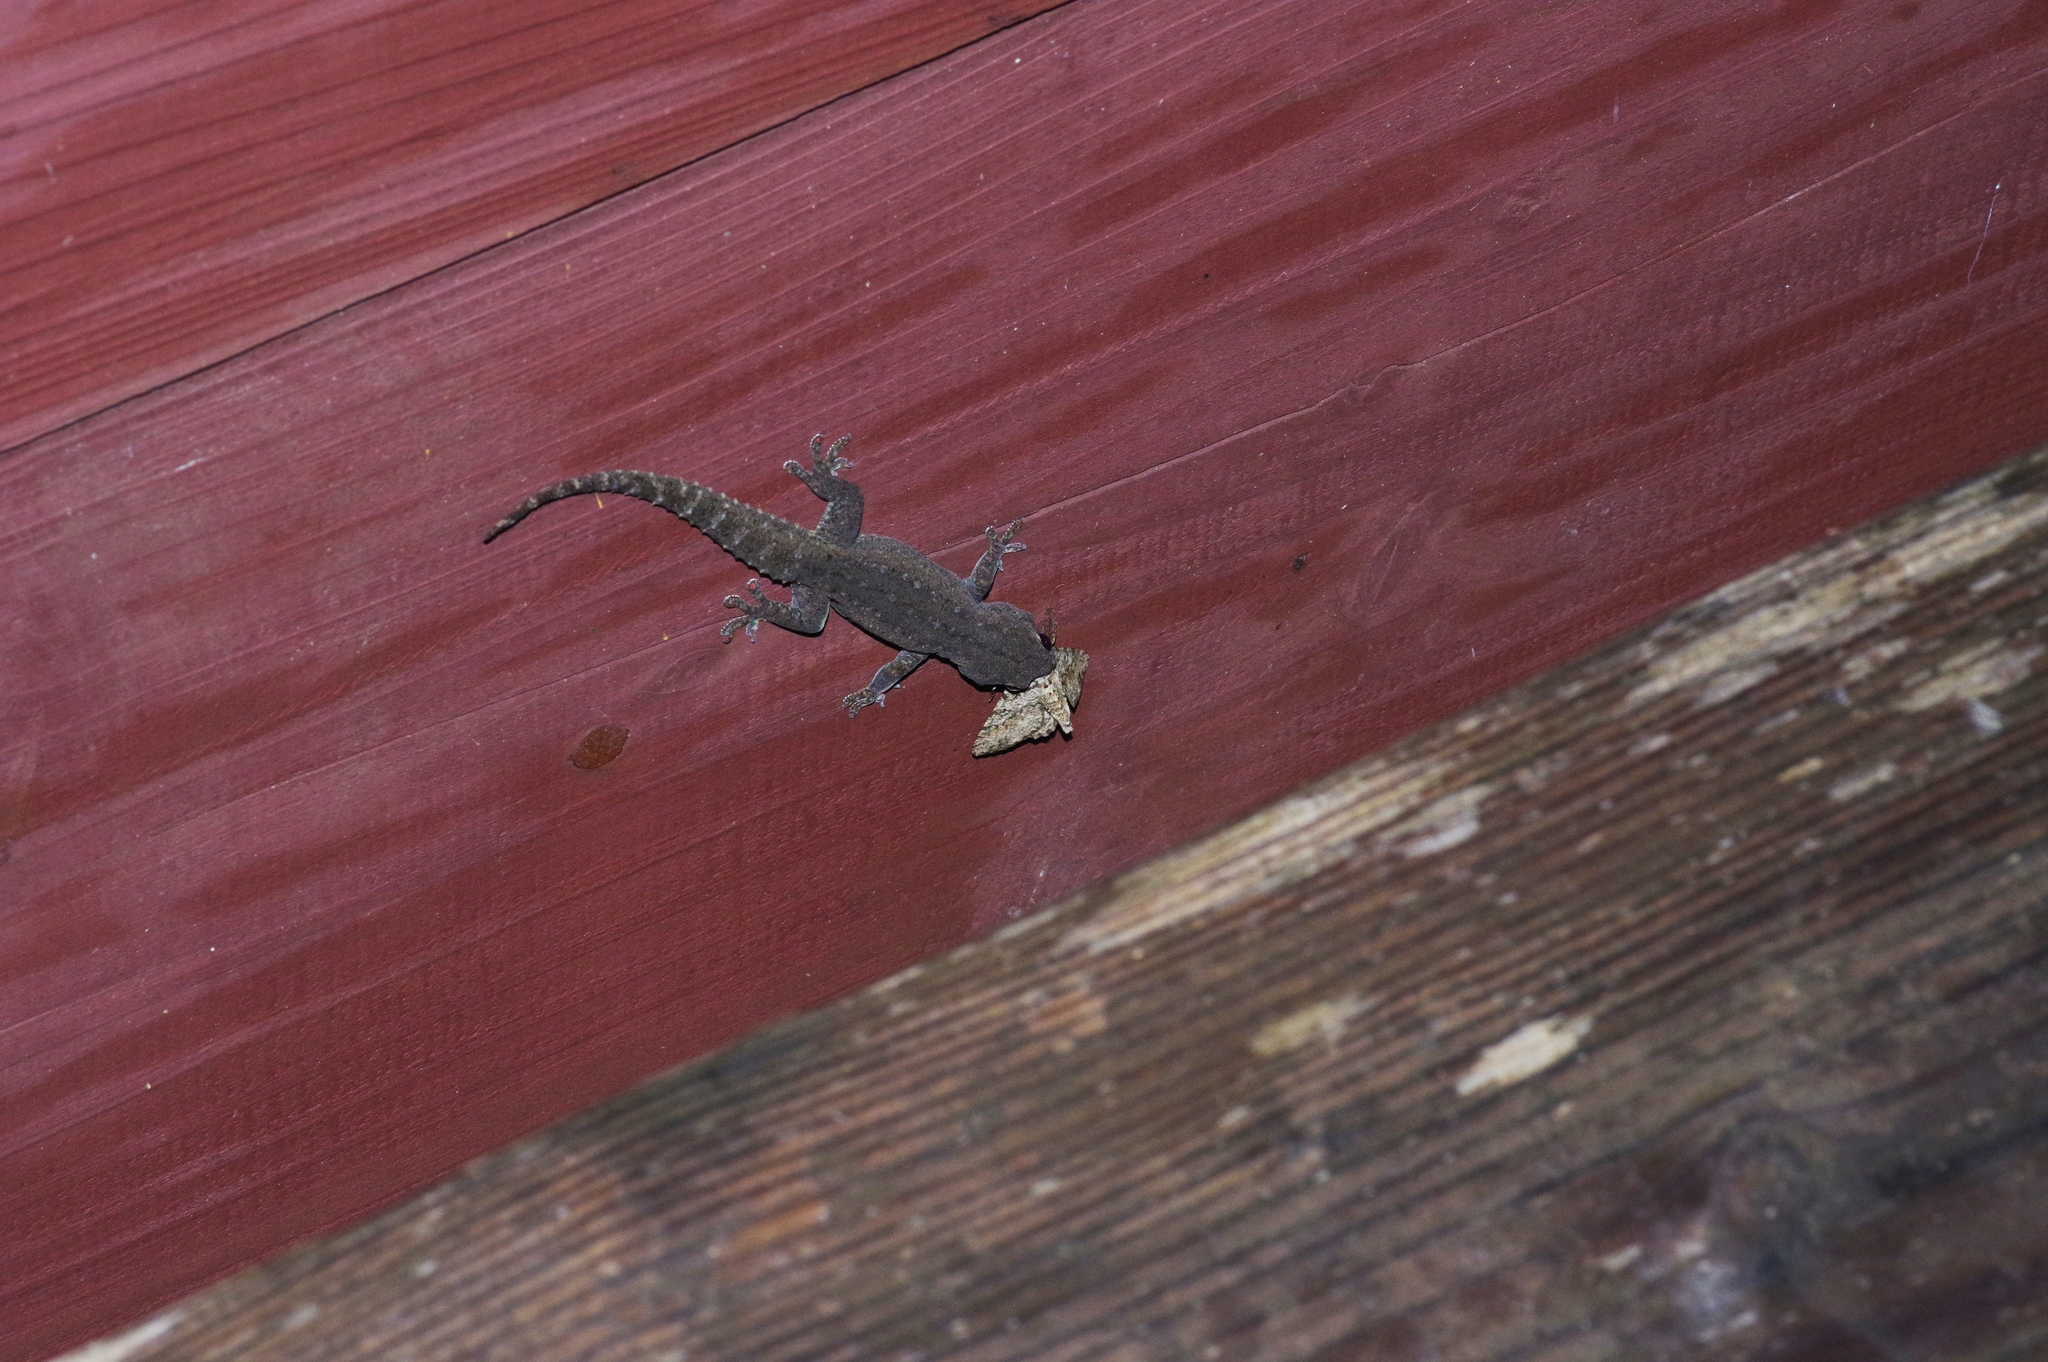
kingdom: Animalia
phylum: Chordata
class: Squamata
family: Gekkonidae
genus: Hemidactylus
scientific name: Hemidactylus frenatus
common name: Common house gecko
